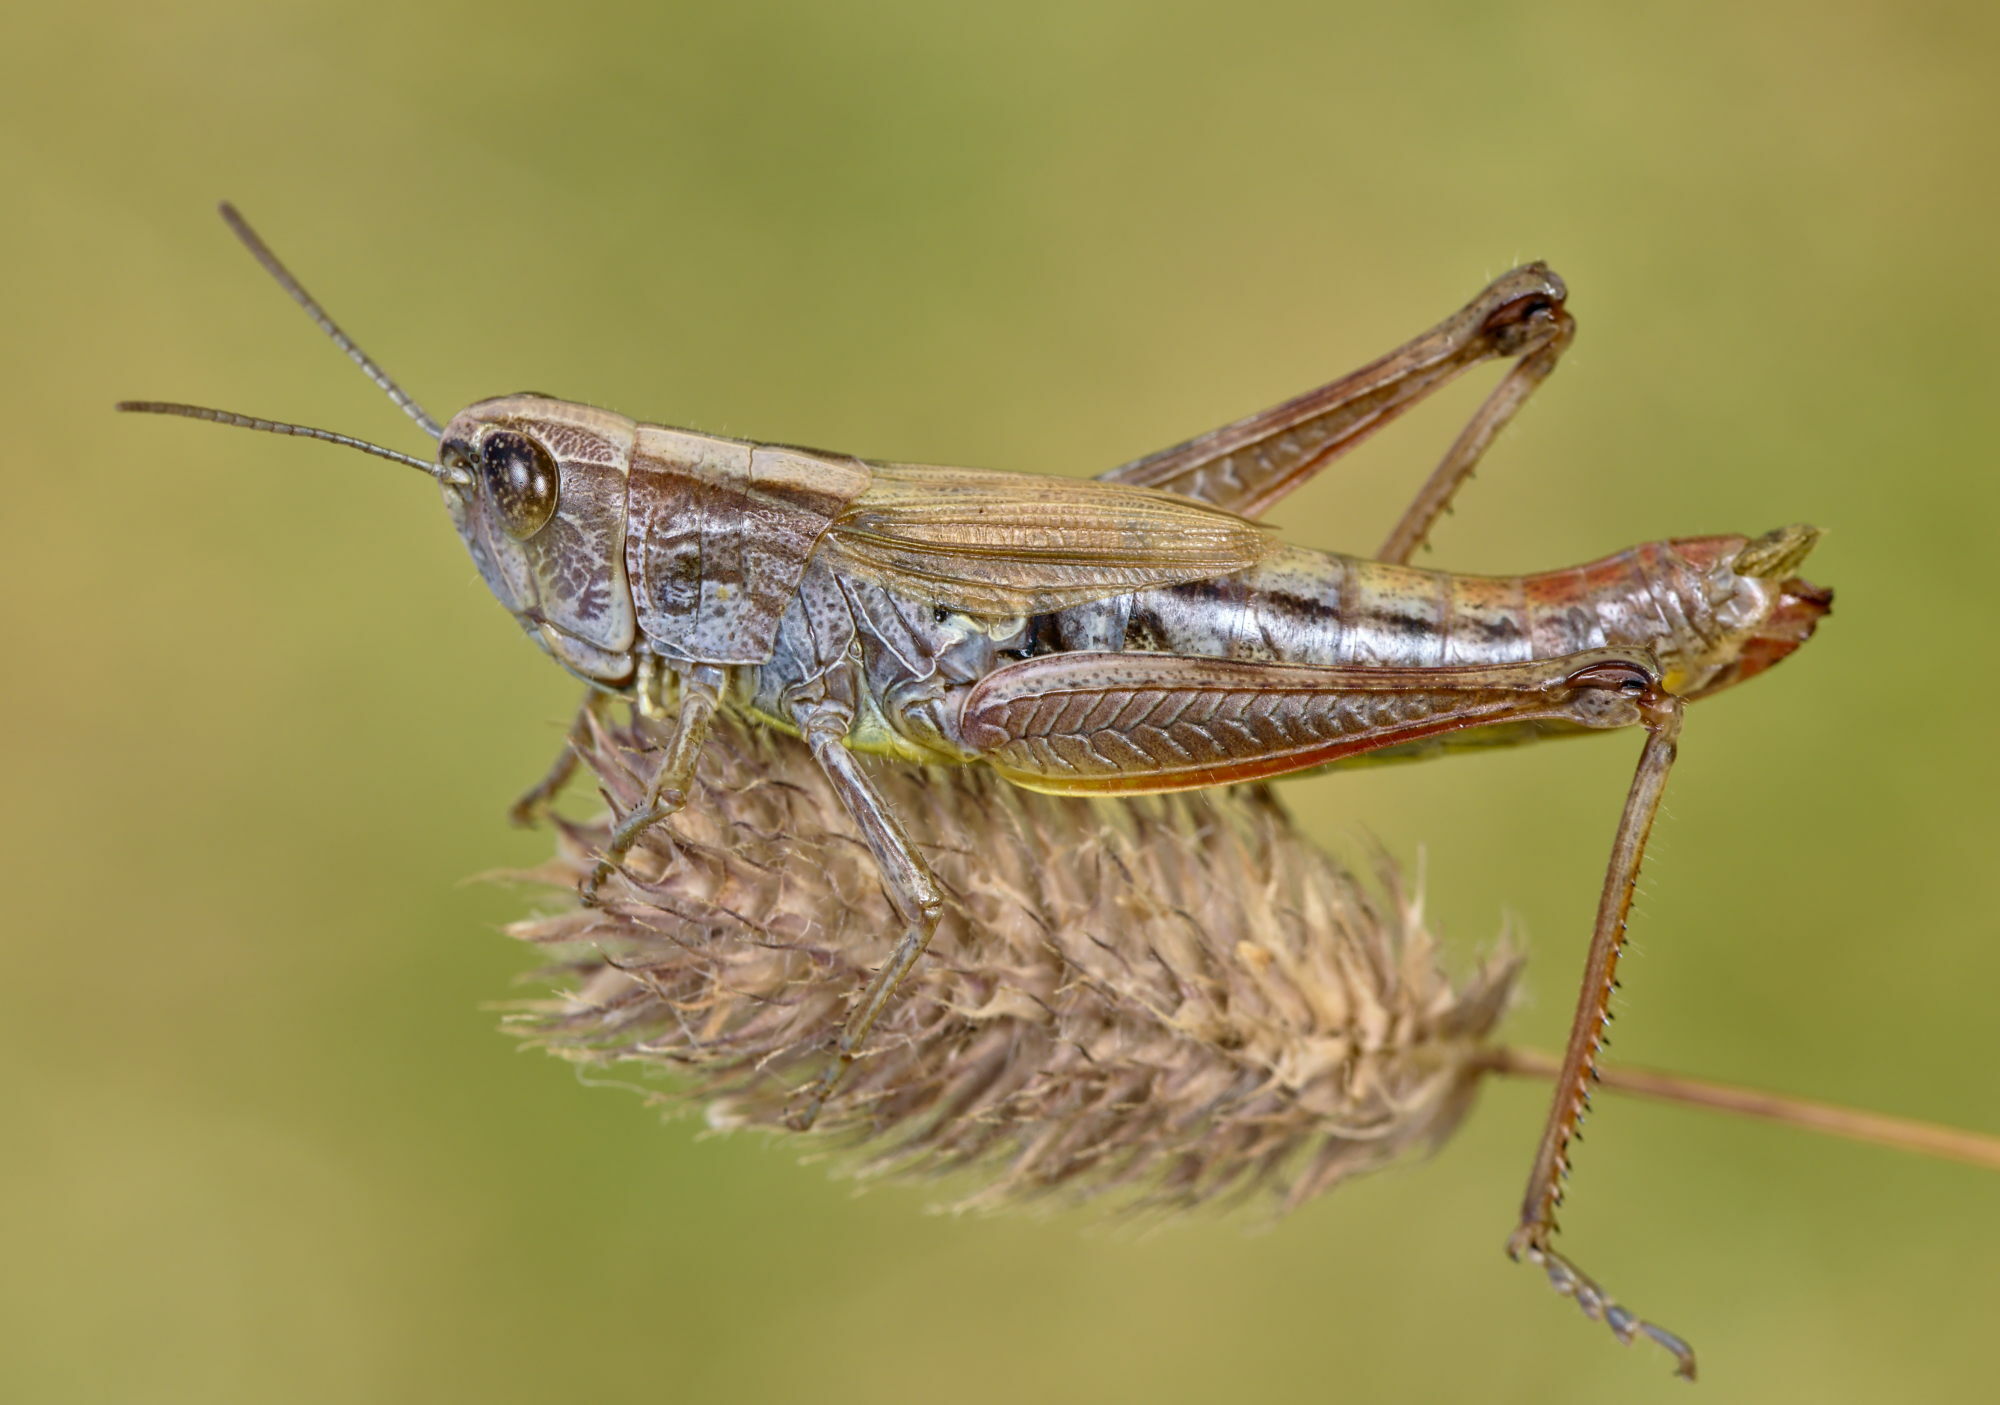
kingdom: Animalia
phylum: Arthropoda
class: Insecta
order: Orthoptera
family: Acrididae
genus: Pseudochorthippus
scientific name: Pseudochorthippus parallelus
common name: Meadow grasshopper
